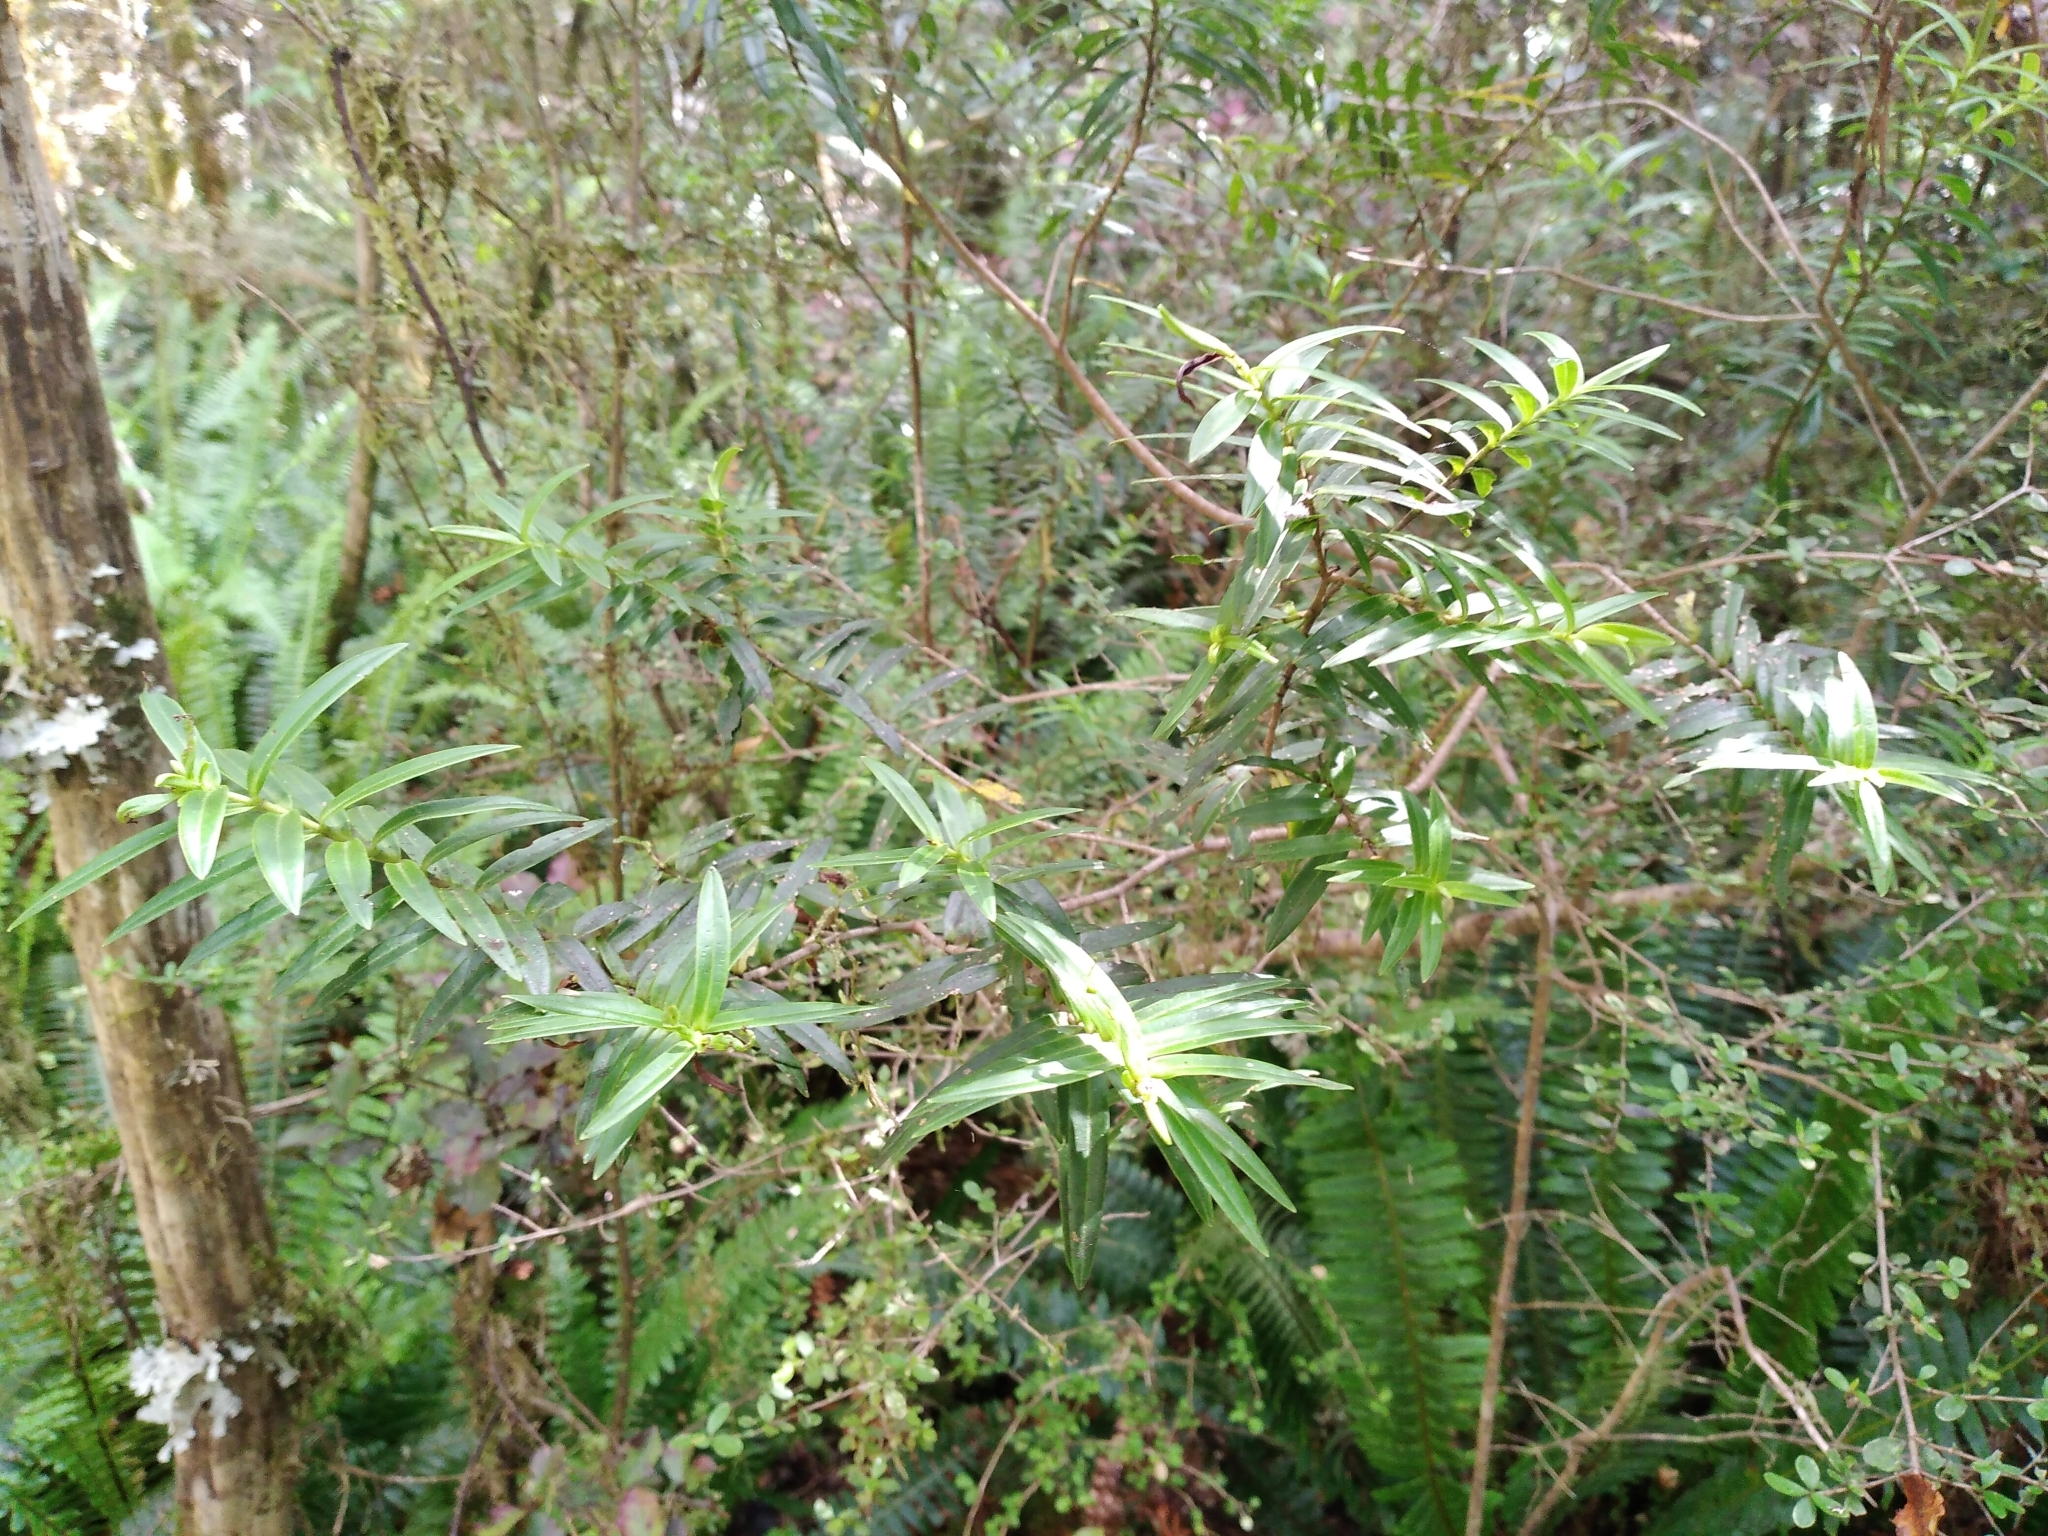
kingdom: Plantae
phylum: Tracheophyta
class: Magnoliopsida
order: Lamiales
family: Plantaginaceae
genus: Veronica
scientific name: Veronica leiophylla
